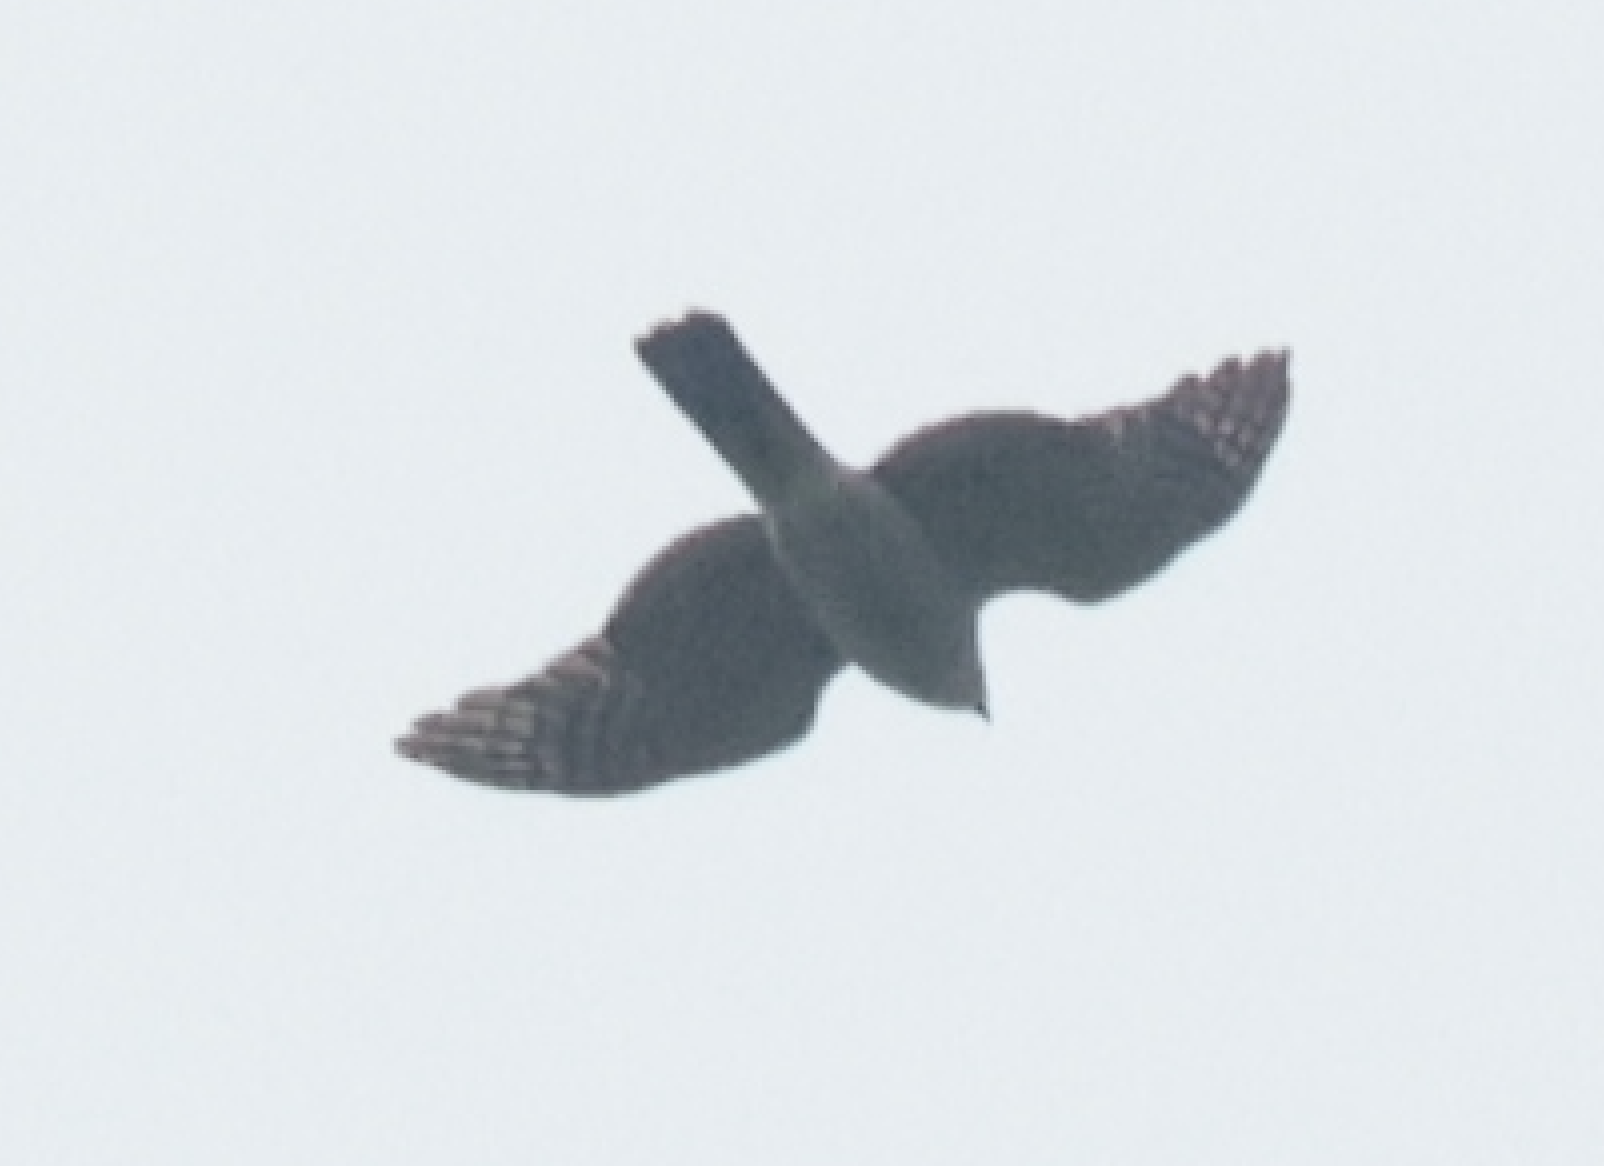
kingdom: Animalia
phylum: Chordata
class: Aves
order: Accipitriformes
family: Accipitridae
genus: Accipiter
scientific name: Accipiter nisus
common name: Eurasian sparrowhawk
